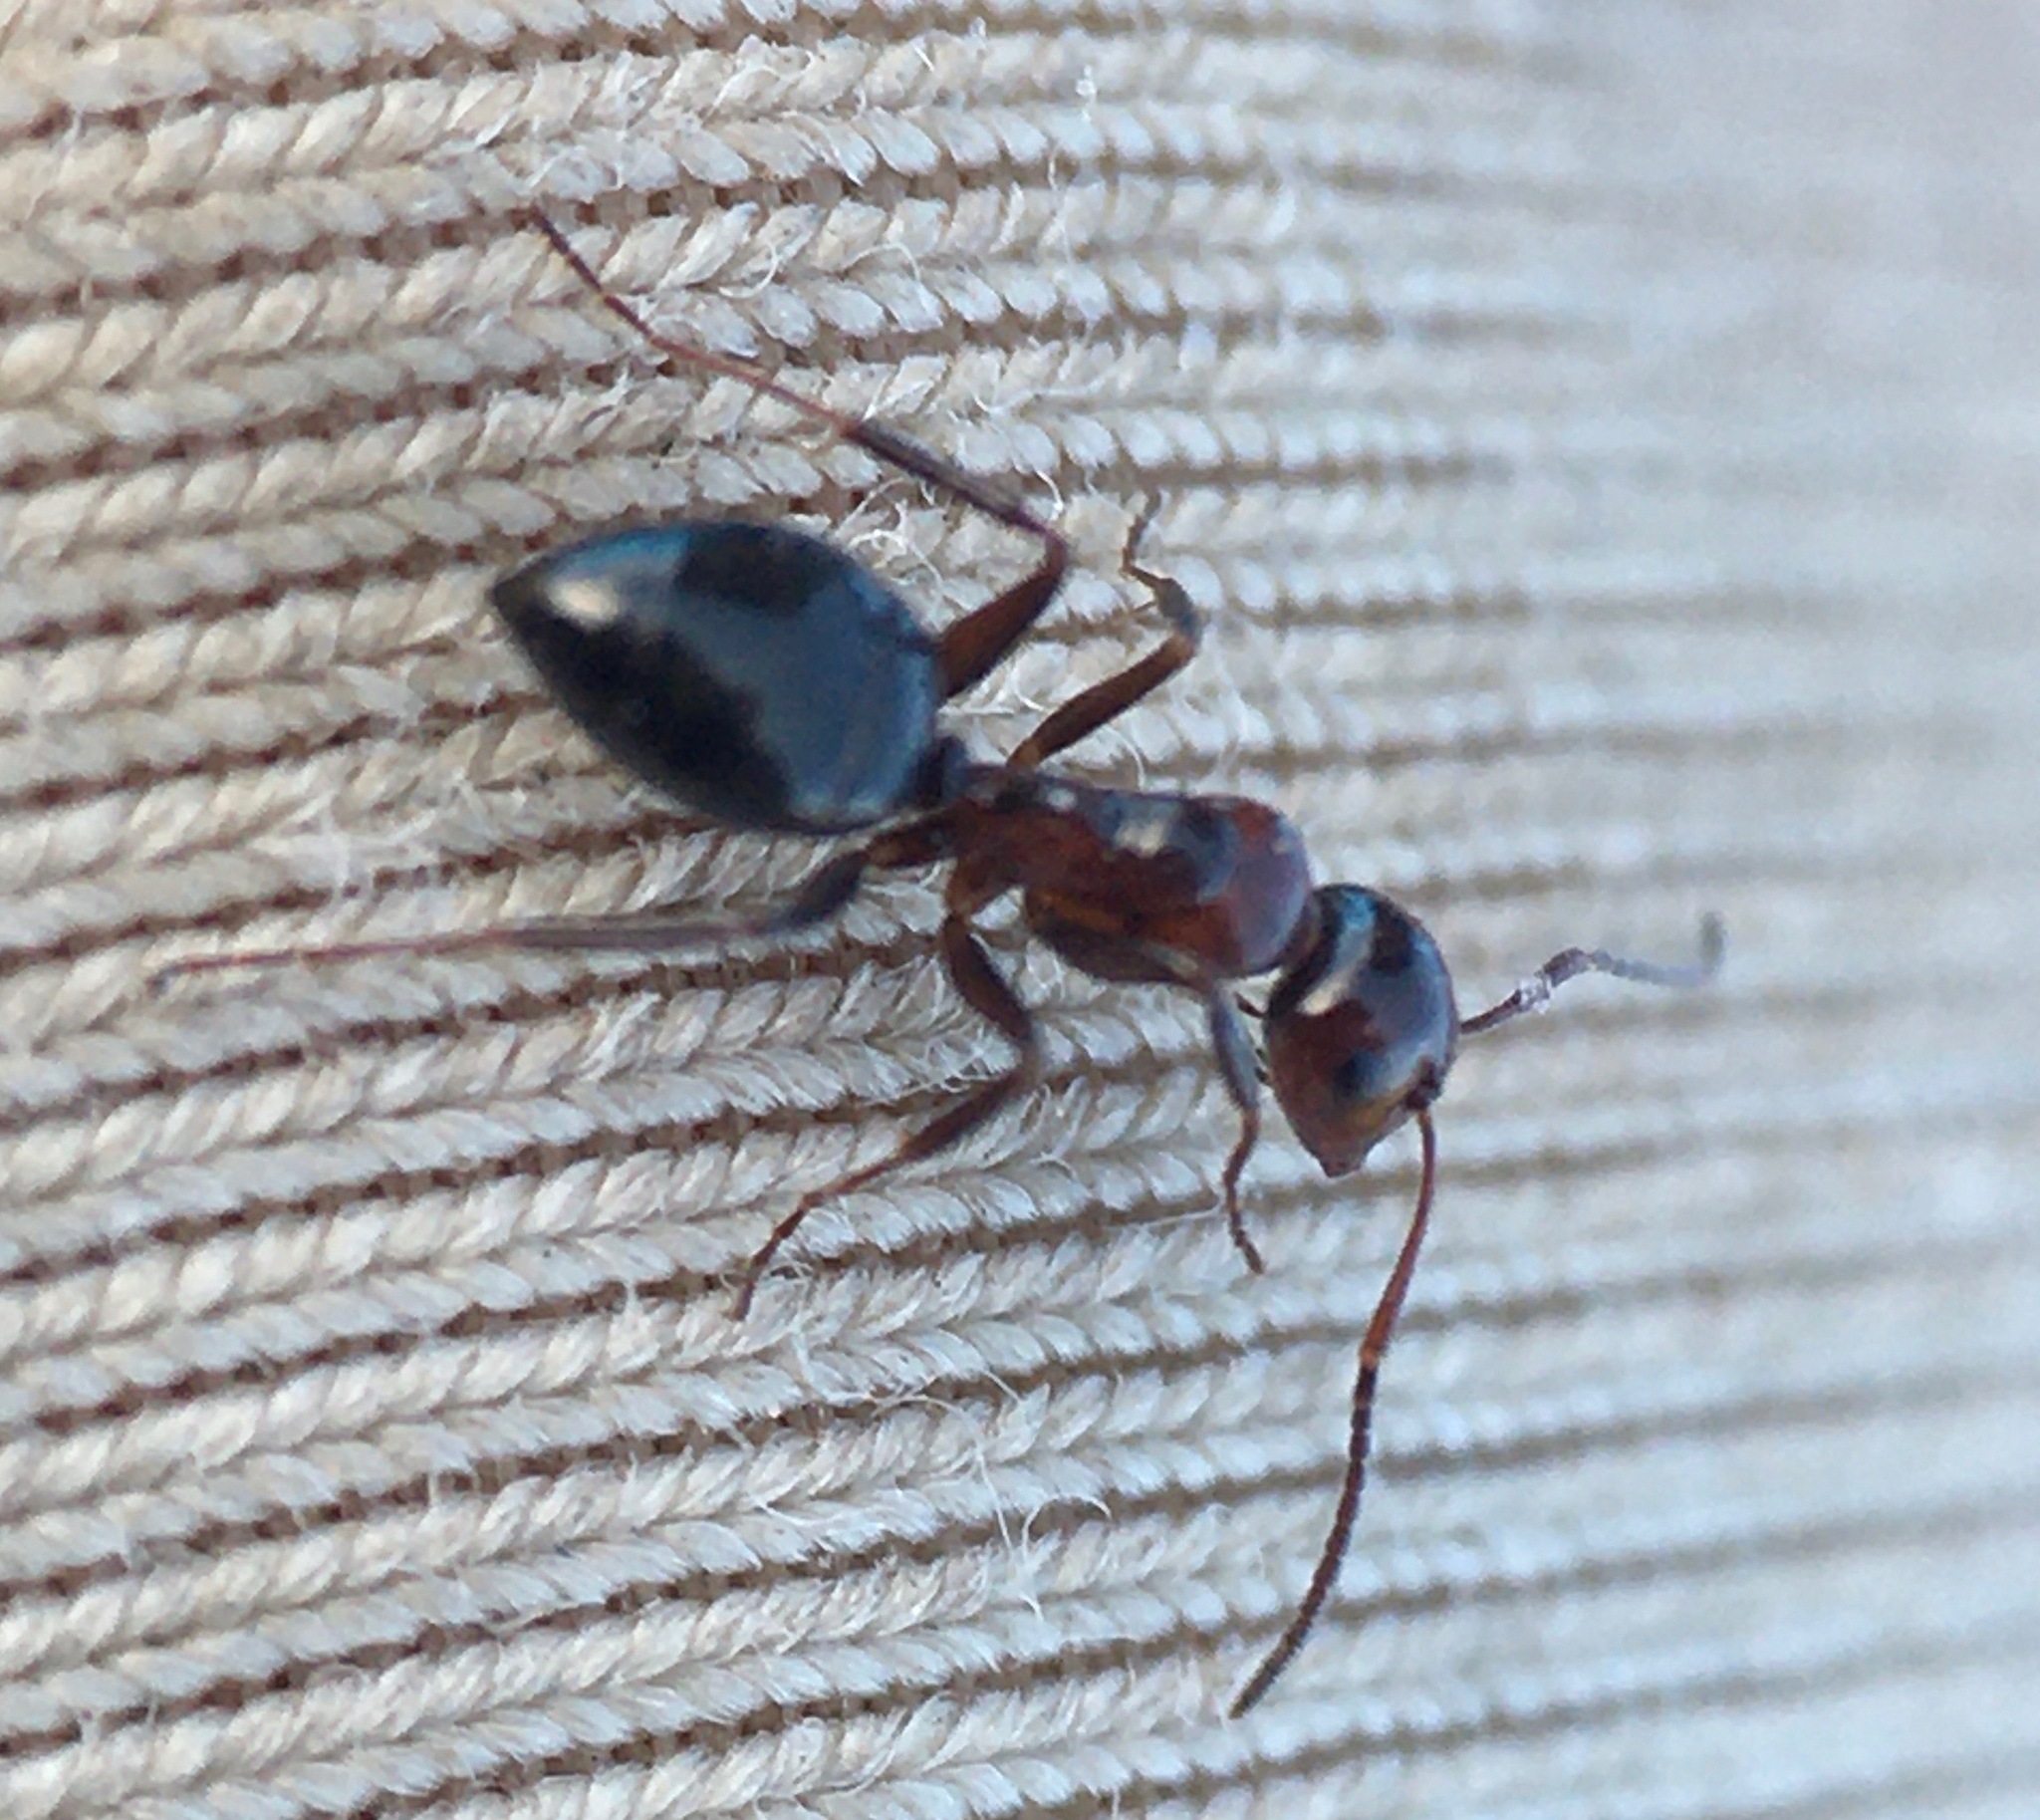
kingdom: Animalia
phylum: Arthropoda
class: Insecta
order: Hymenoptera
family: Formicidae
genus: Camponotus
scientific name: Camponotus bakeri
